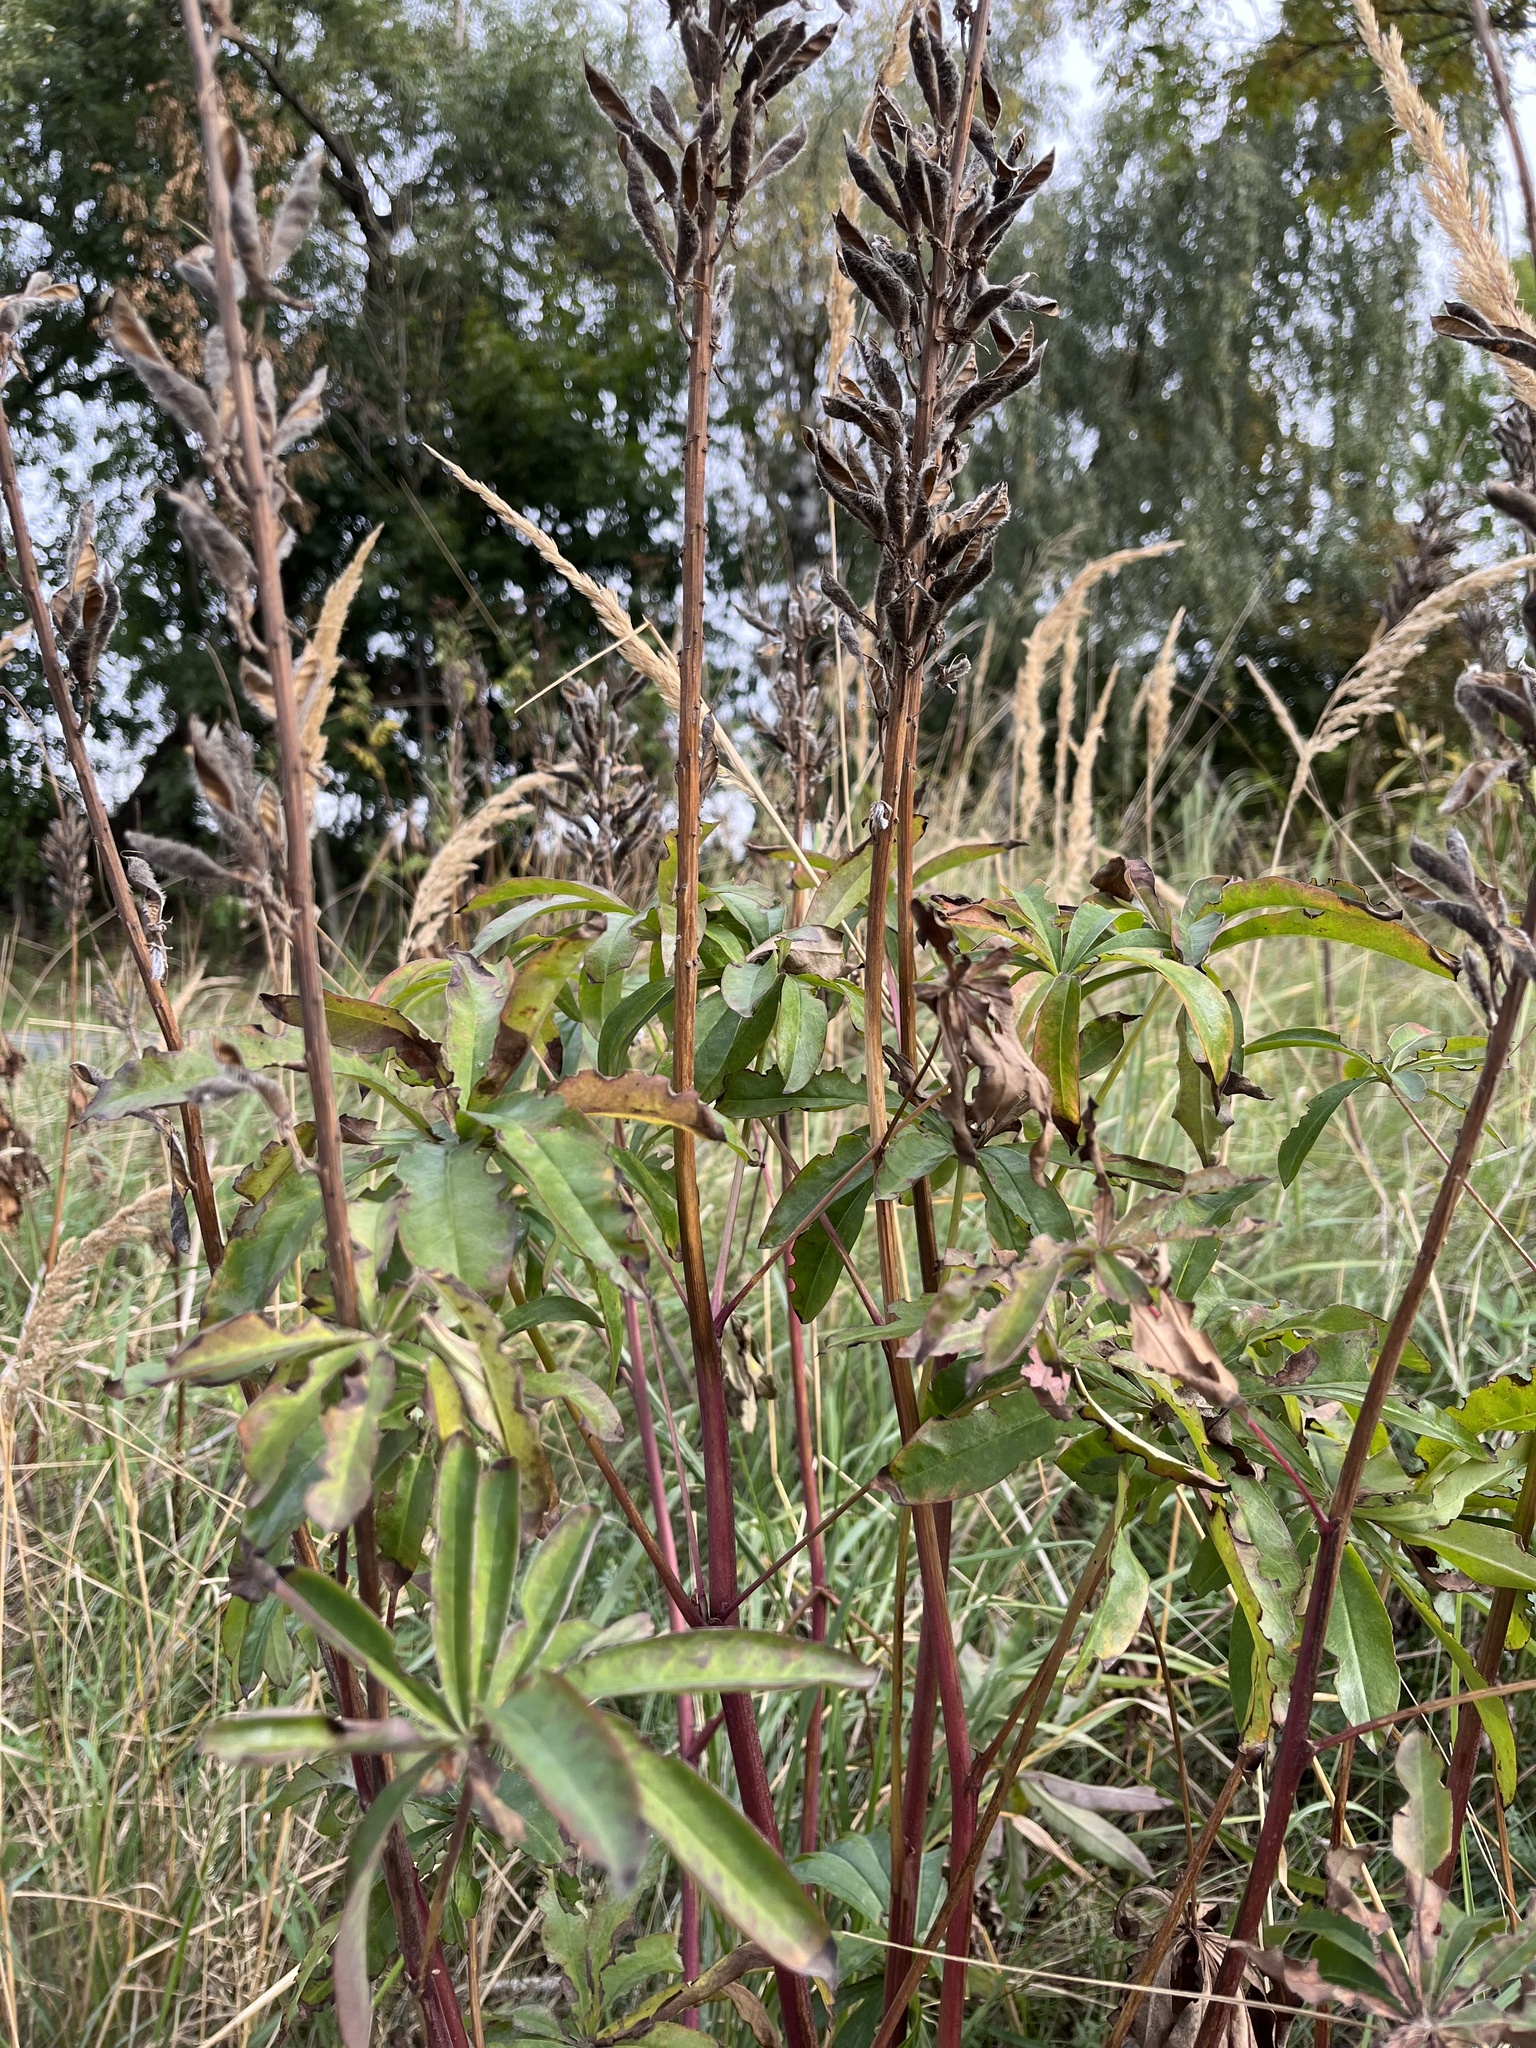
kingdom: Plantae
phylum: Tracheophyta
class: Magnoliopsida
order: Fabales
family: Fabaceae
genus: Lupinus
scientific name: Lupinus polyphyllus
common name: Garden lupin
